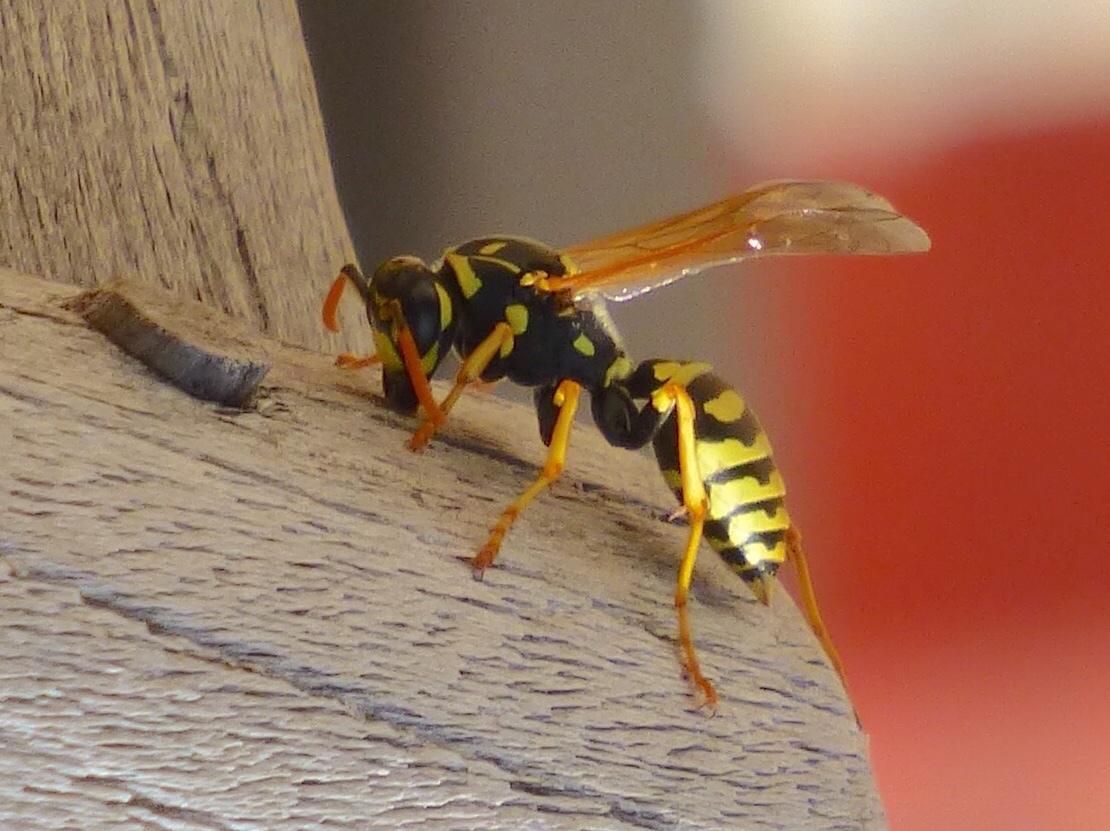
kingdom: Animalia
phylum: Arthropoda
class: Insecta
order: Hymenoptera
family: Eumenidae
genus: Polistes
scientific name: Polistes dominula
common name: Paper wasp
